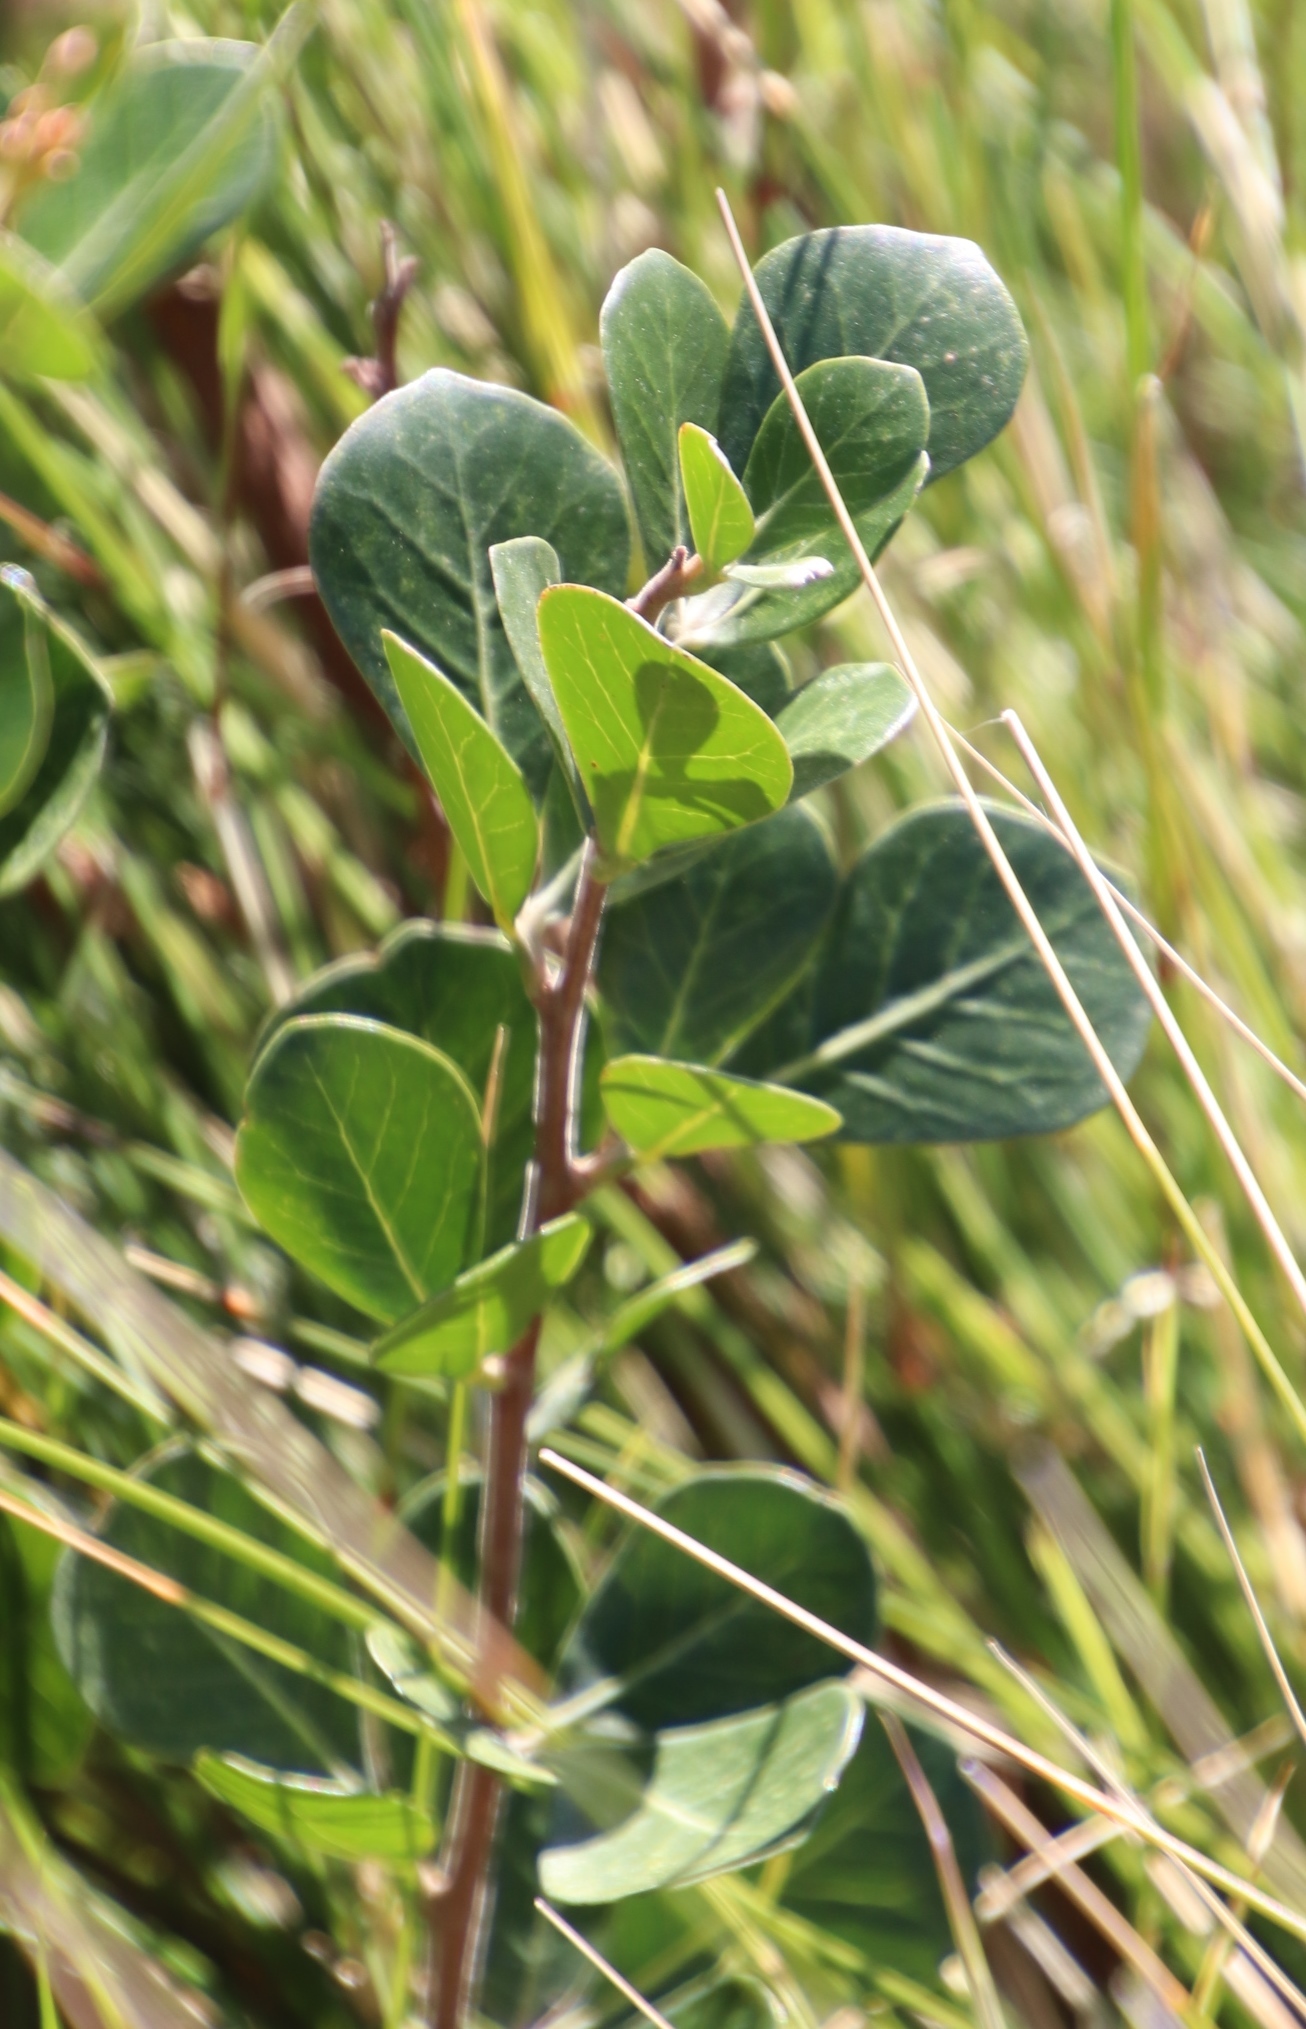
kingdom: Plantae
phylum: Tracheophyta
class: Magnoliopsida
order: Sapindales
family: Anacardiaceae
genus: Searsia
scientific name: Searsia lucida
